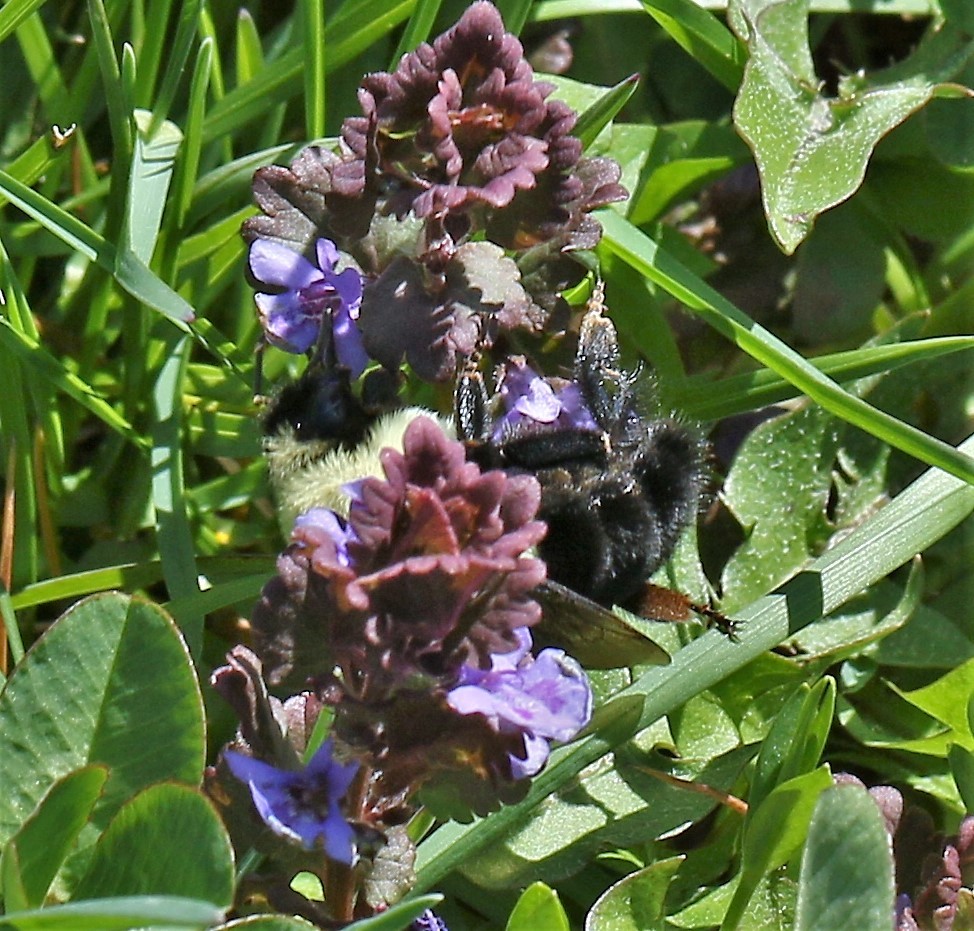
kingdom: Animalia
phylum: Arthropoda
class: Insecta
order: Hymenoptera
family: Apidae
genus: Bombus
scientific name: Bombus impatiens
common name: Common eastern bumble bee
